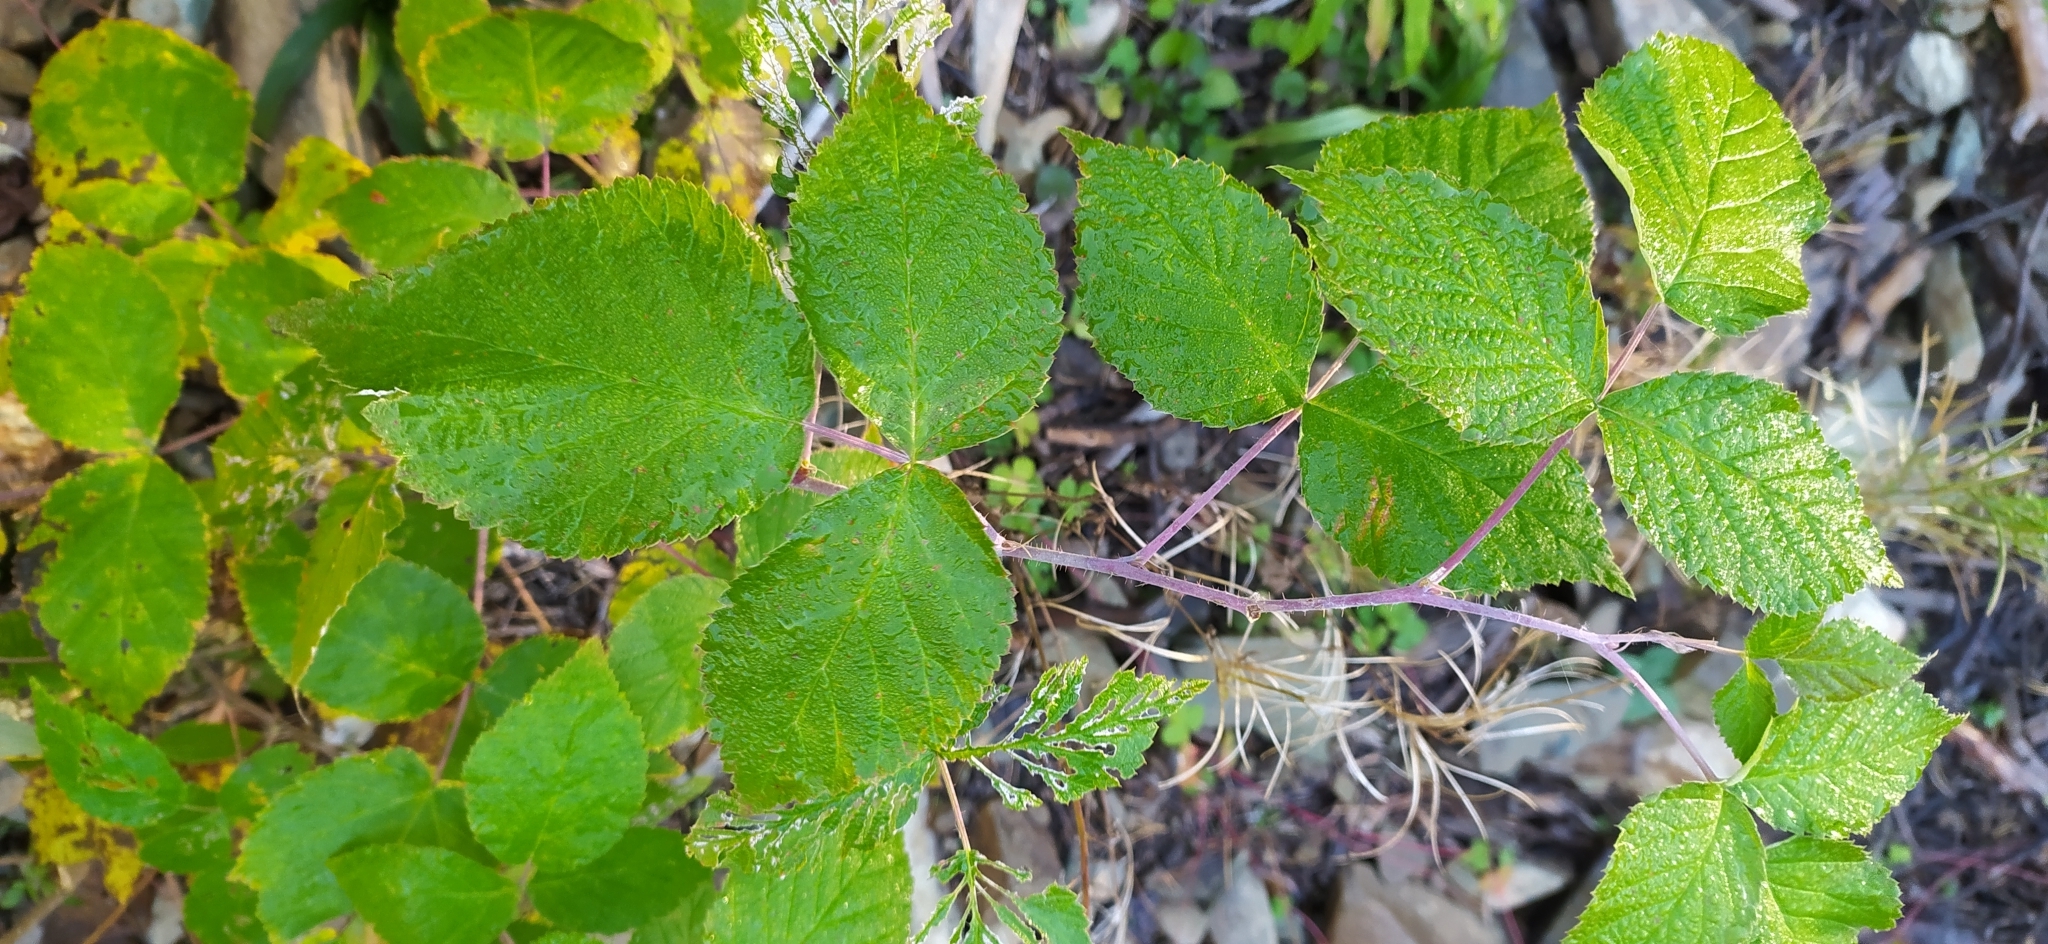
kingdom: Plantae
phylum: Tracheophyta
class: Magnoliopsida
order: Rosales
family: Rosaceae
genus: Rubus
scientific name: Rubus idaeus
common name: Raspberry
